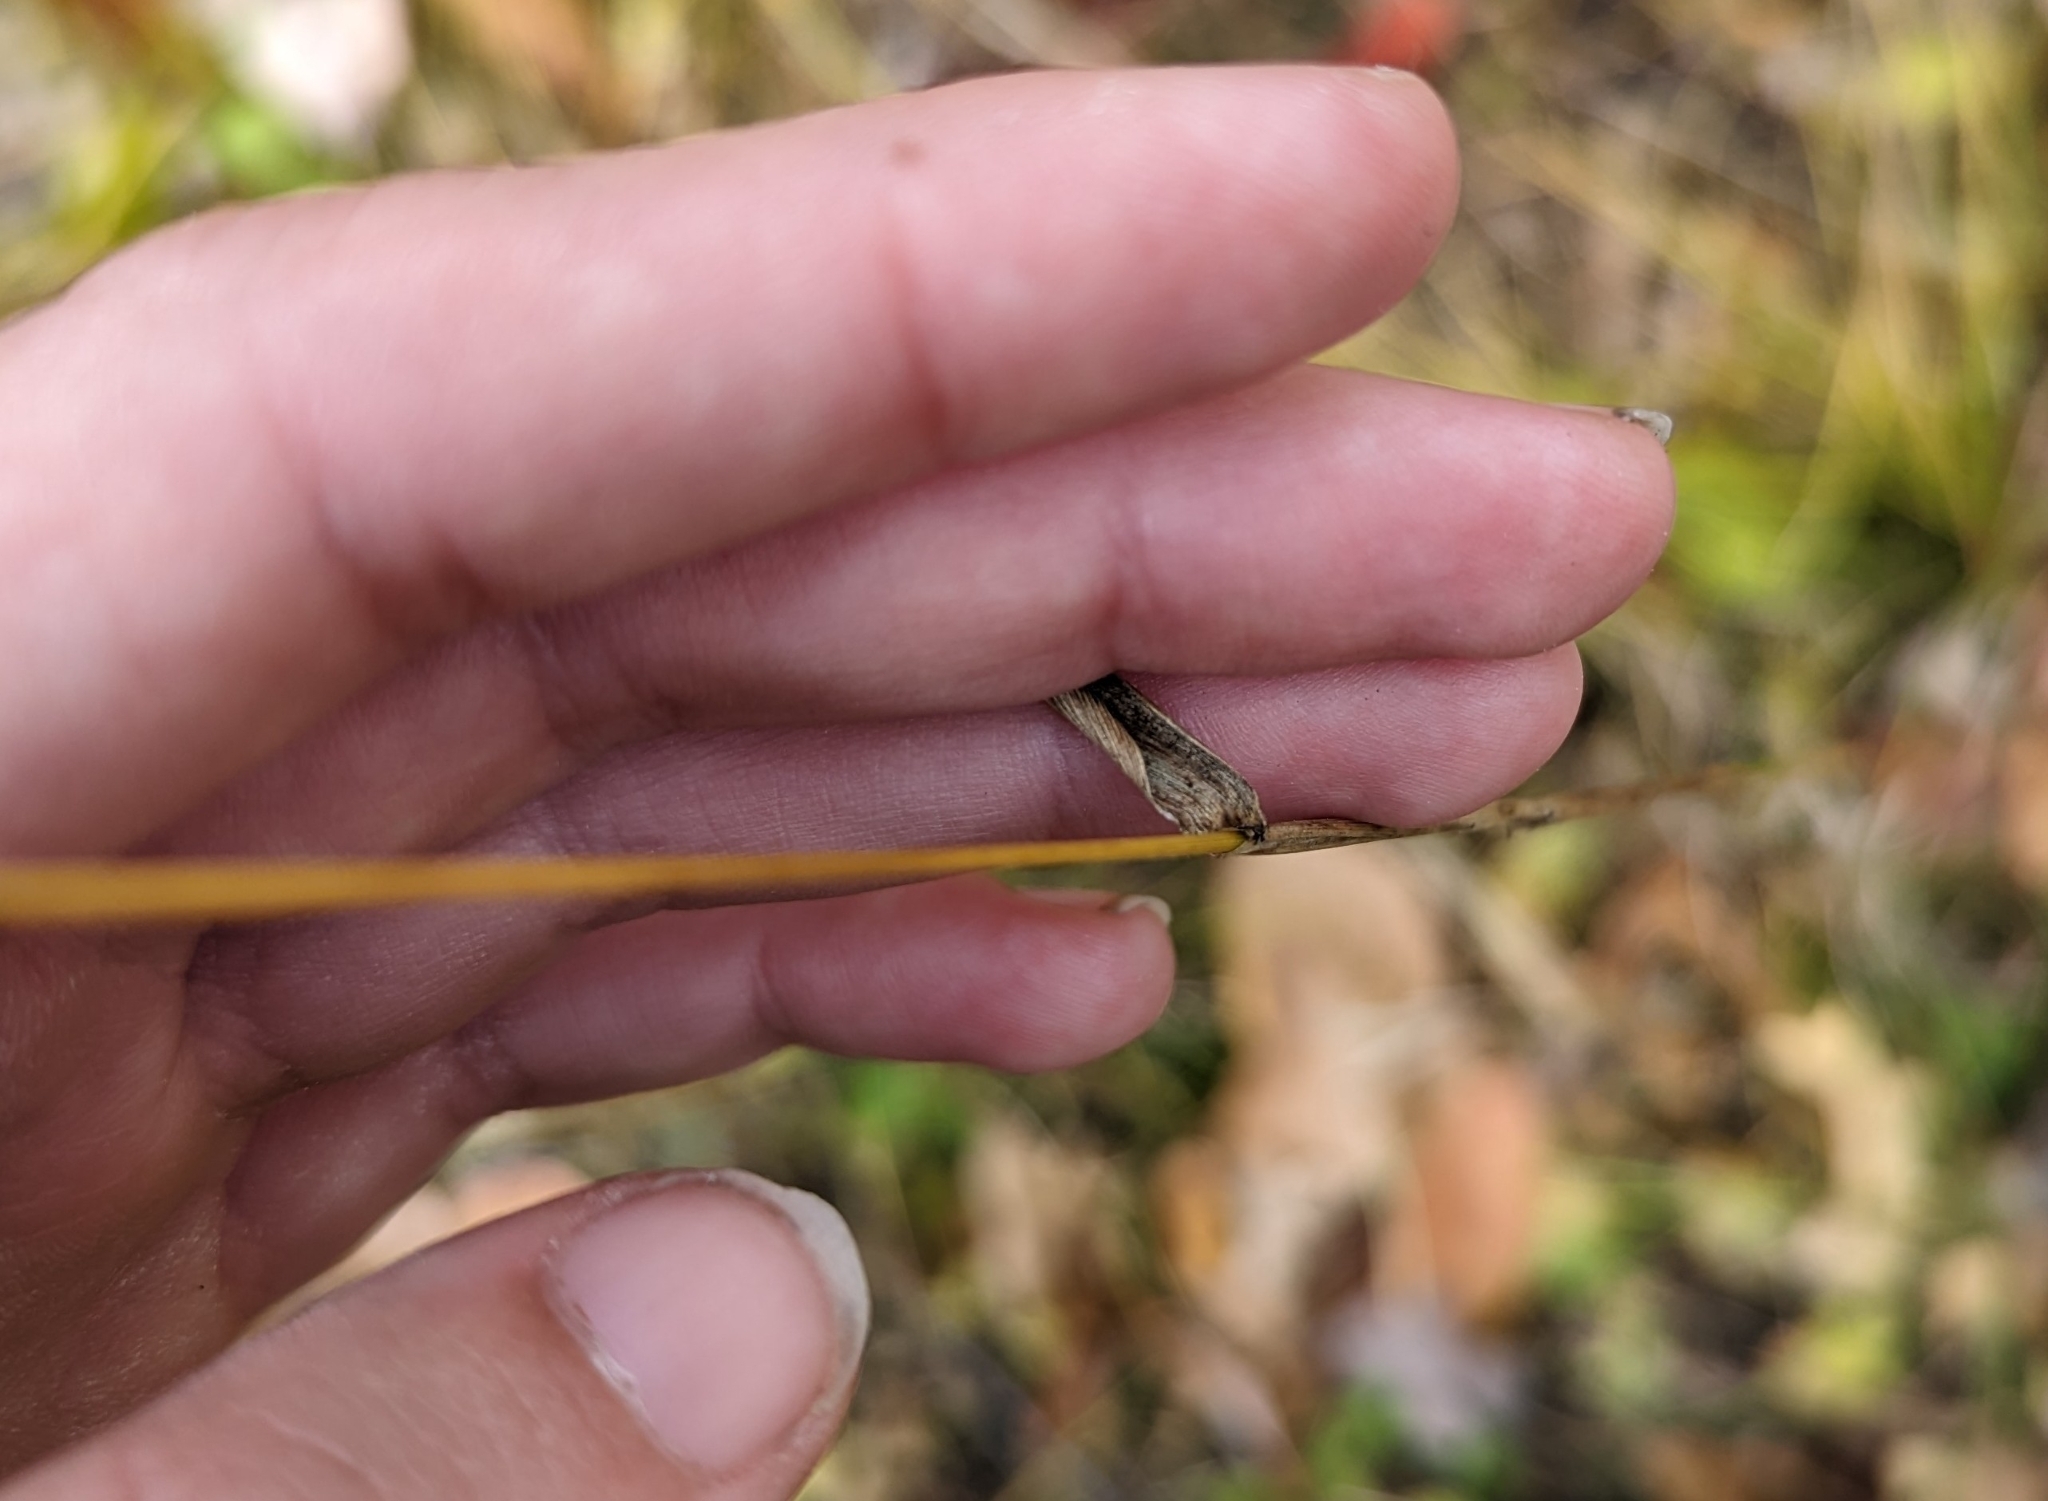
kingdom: Plantae
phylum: Tracheophyta
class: Liliopsida
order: Poales
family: Poaceae
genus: Elymus
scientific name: Elymus hystrix
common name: Bottlebrush grass
